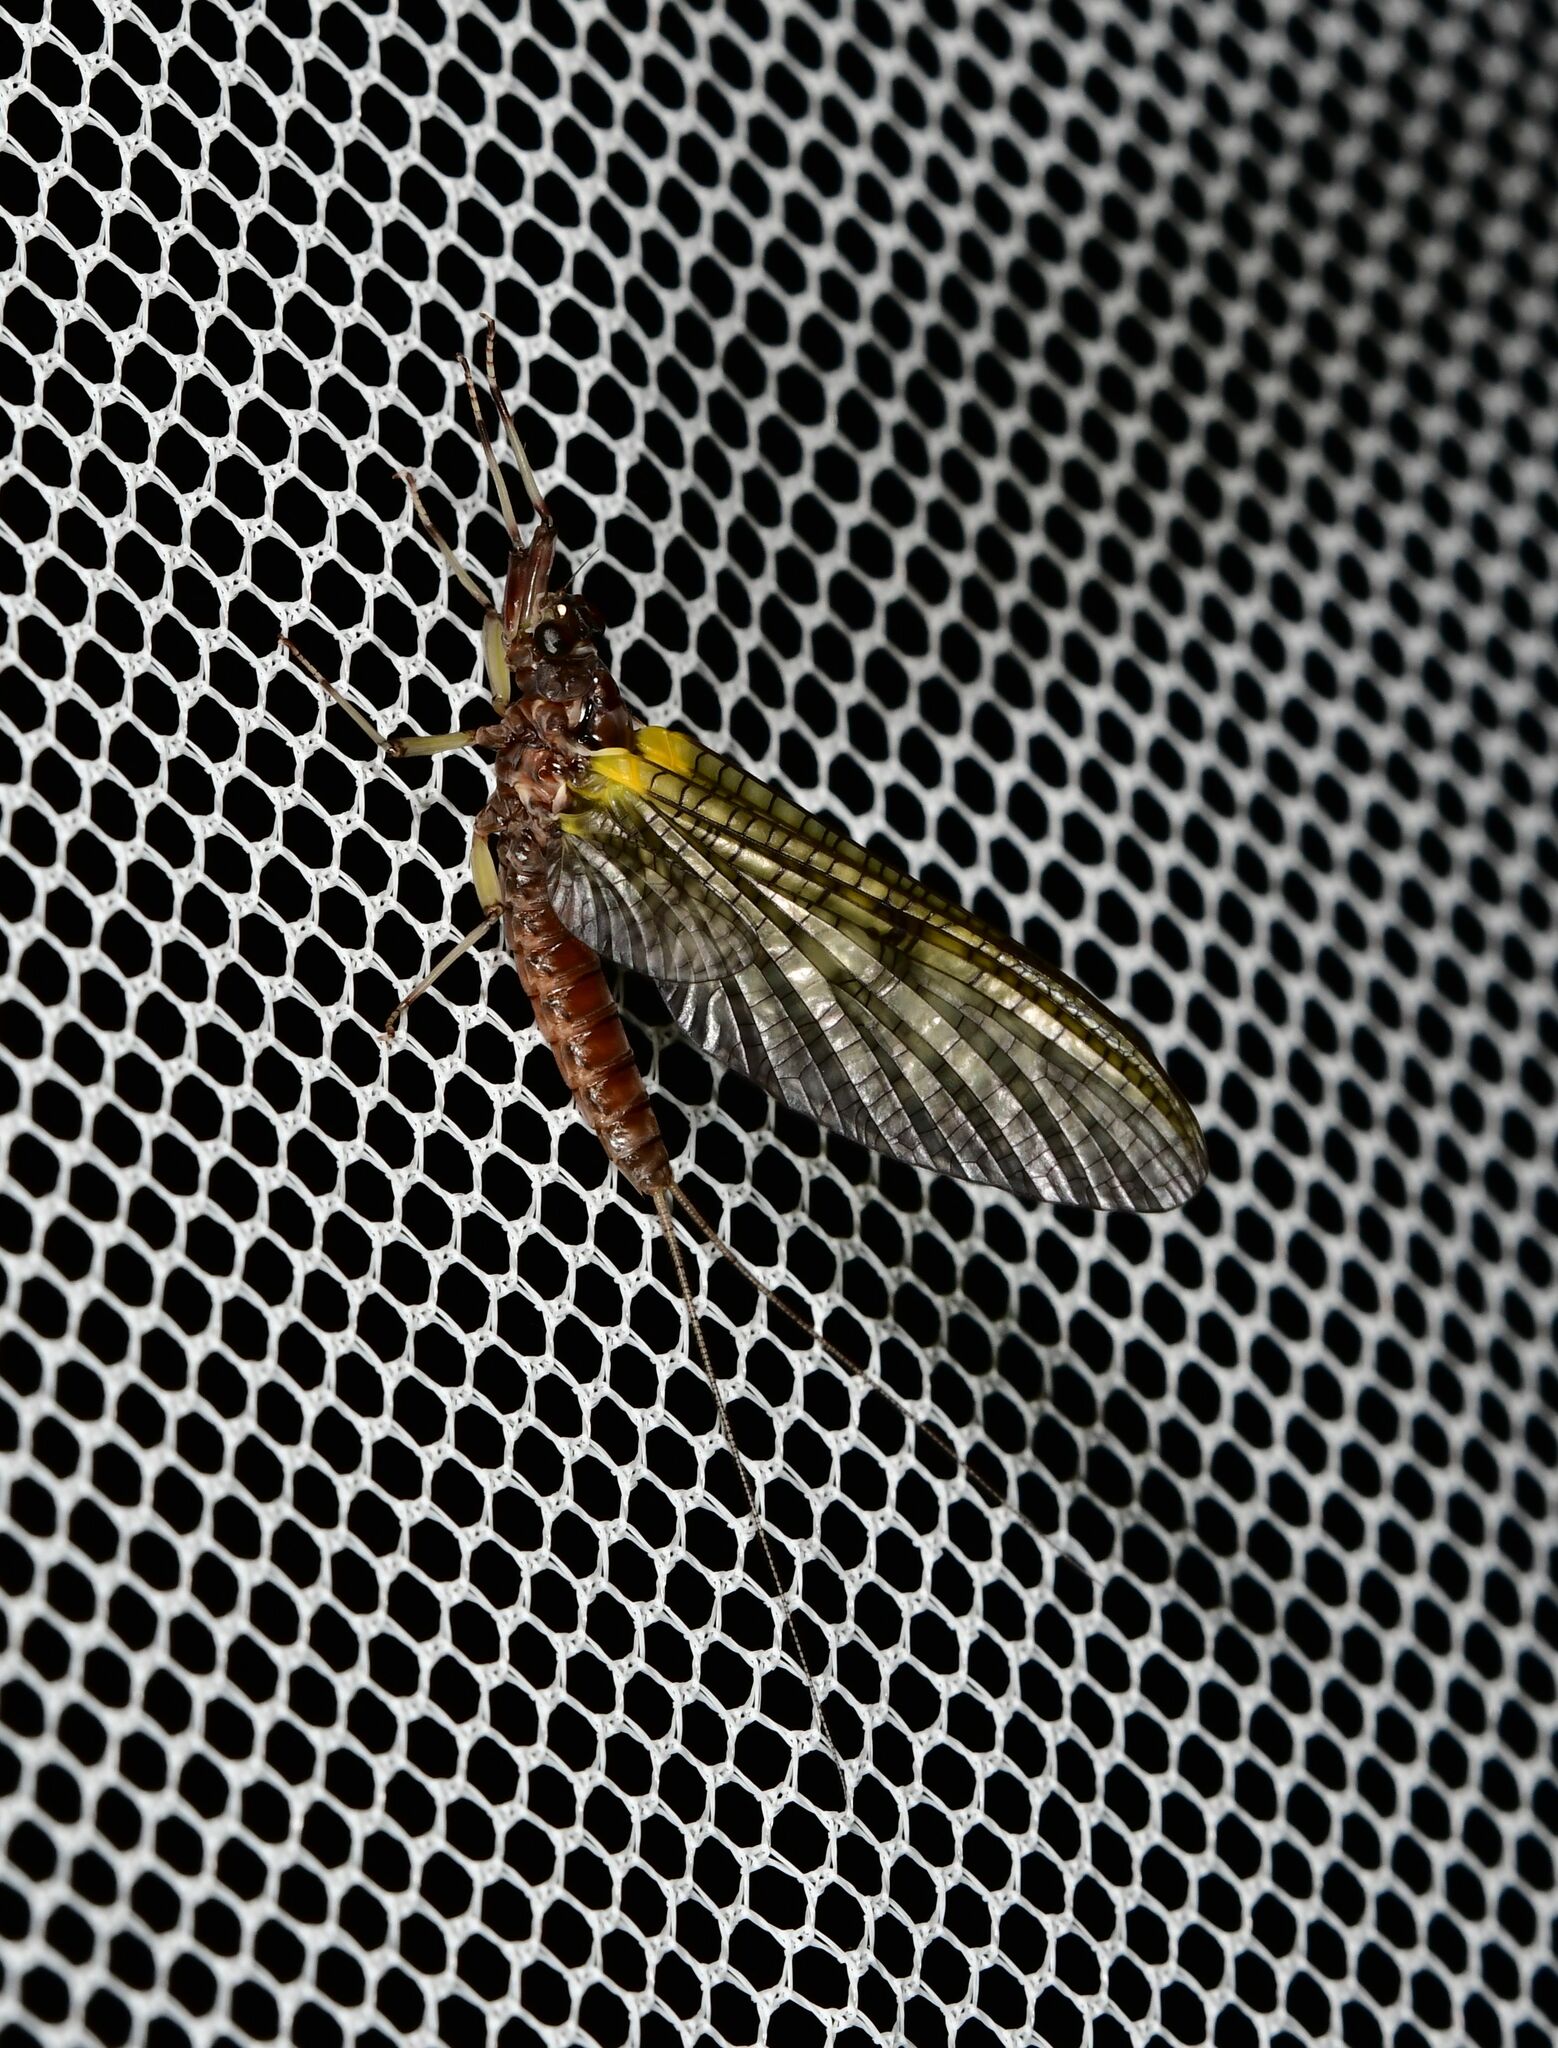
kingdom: Animalia
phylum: Arthropoda
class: Insecta
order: Ephemeroptera
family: Coloburiscidae
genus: Coloburiscus
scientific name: Coloburiscus humeralis
